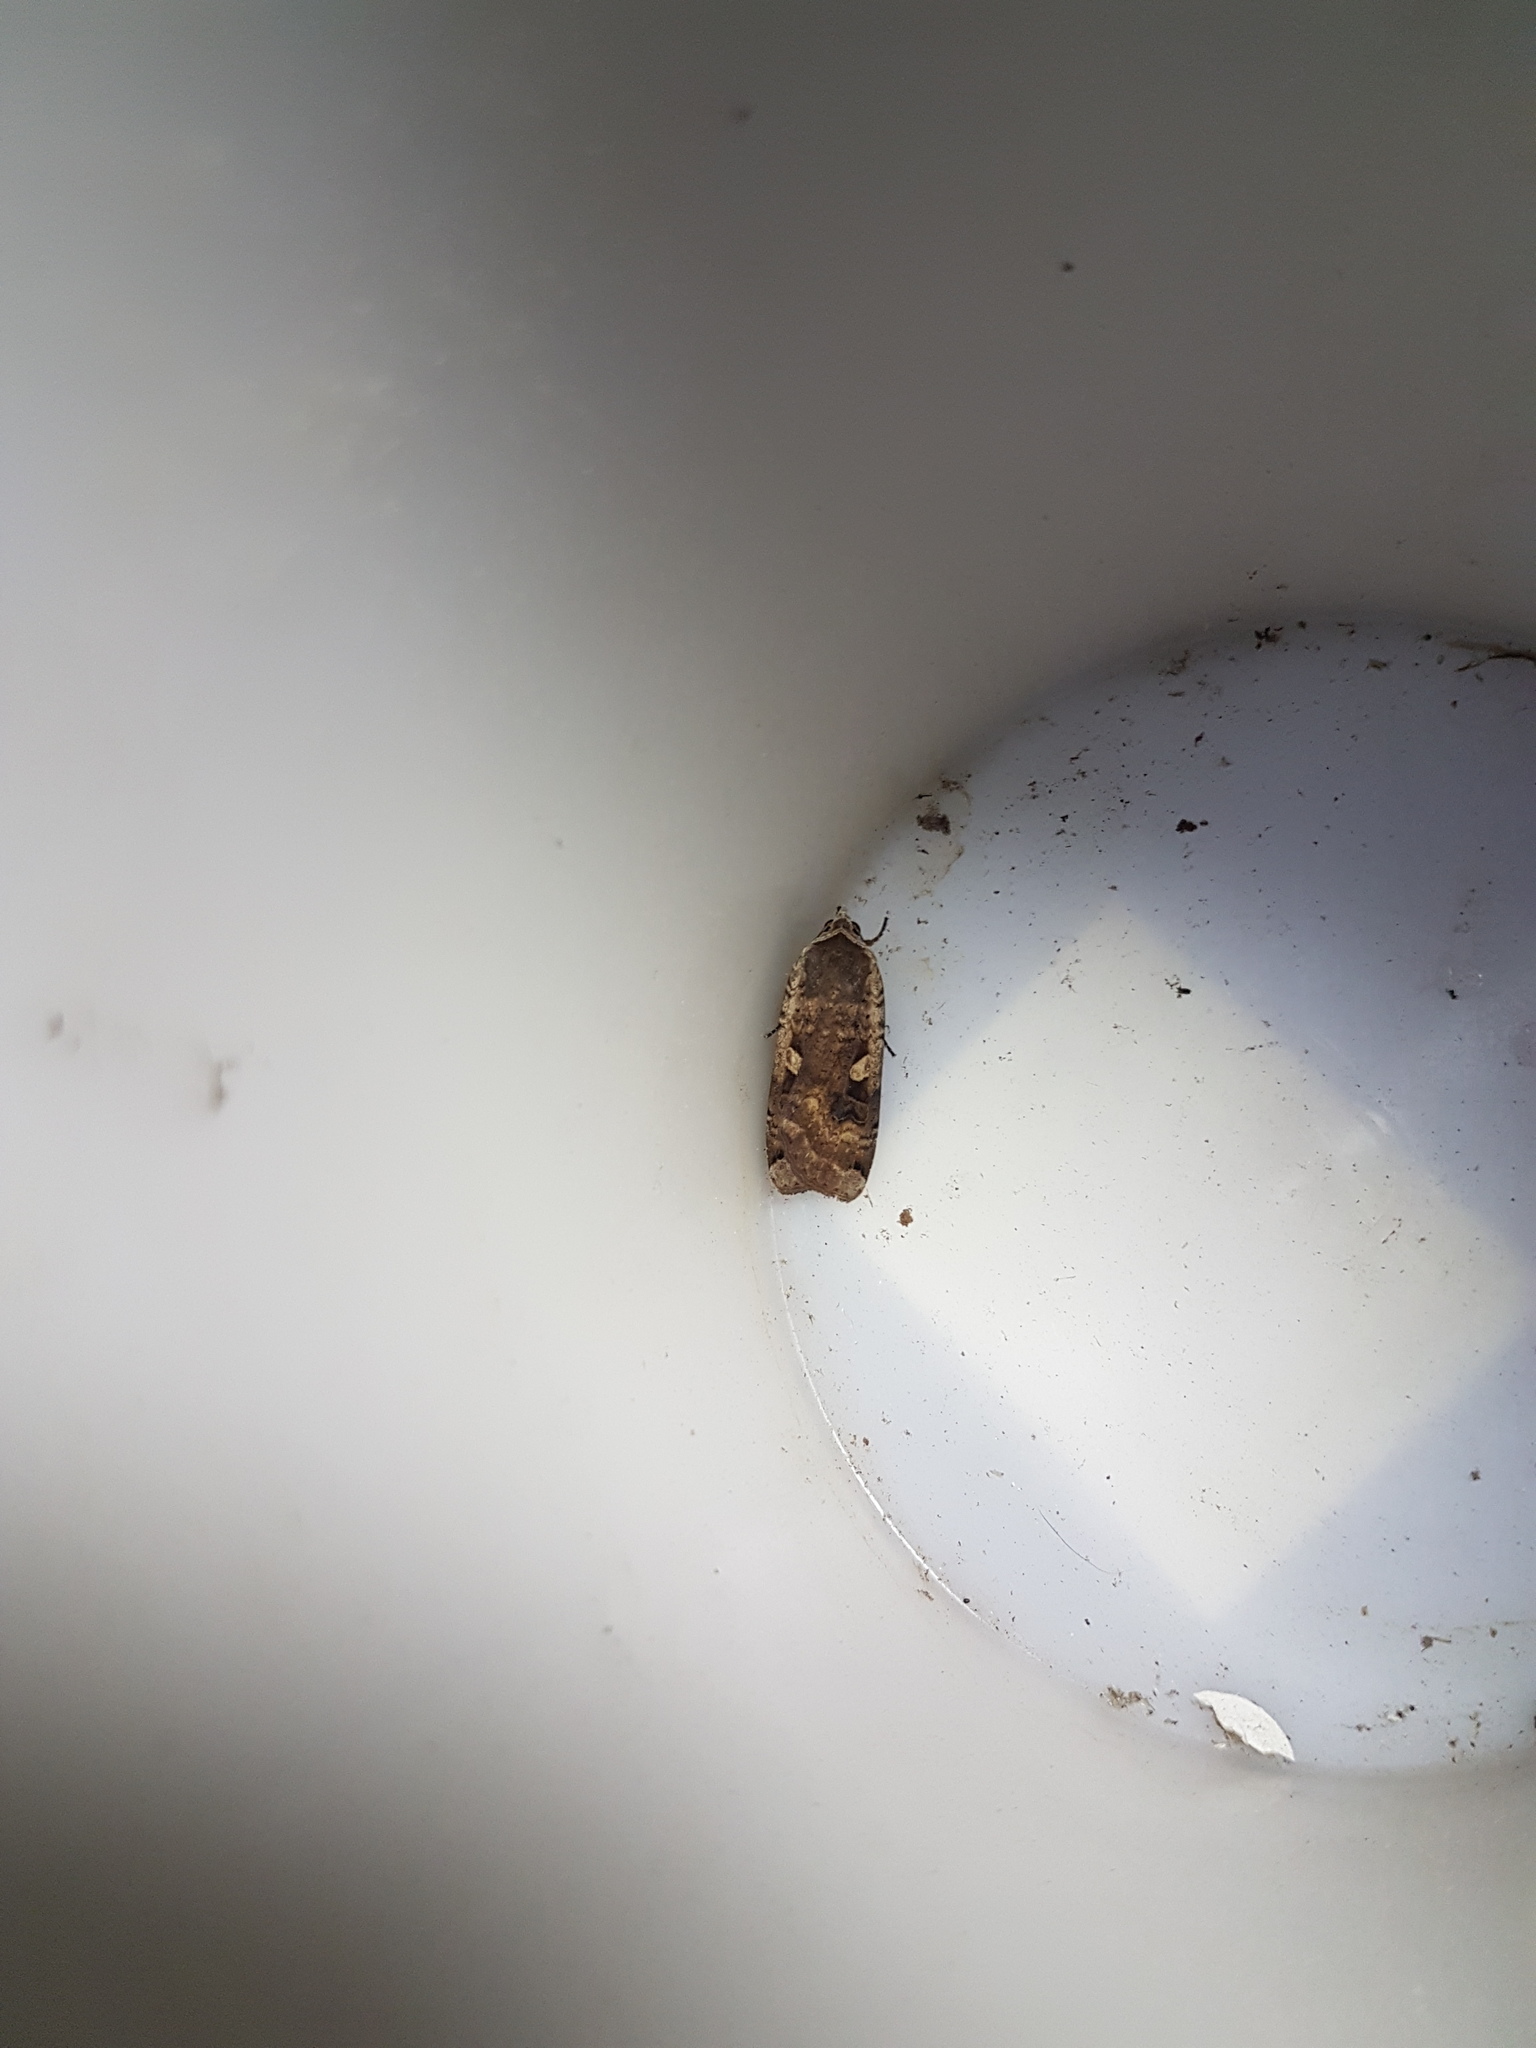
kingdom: Animalia
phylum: Arthropoda
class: Insecta
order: Lepidoptera
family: Noctuidae
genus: Noctua
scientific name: Noctua pronuba
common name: Large yellow underwing
